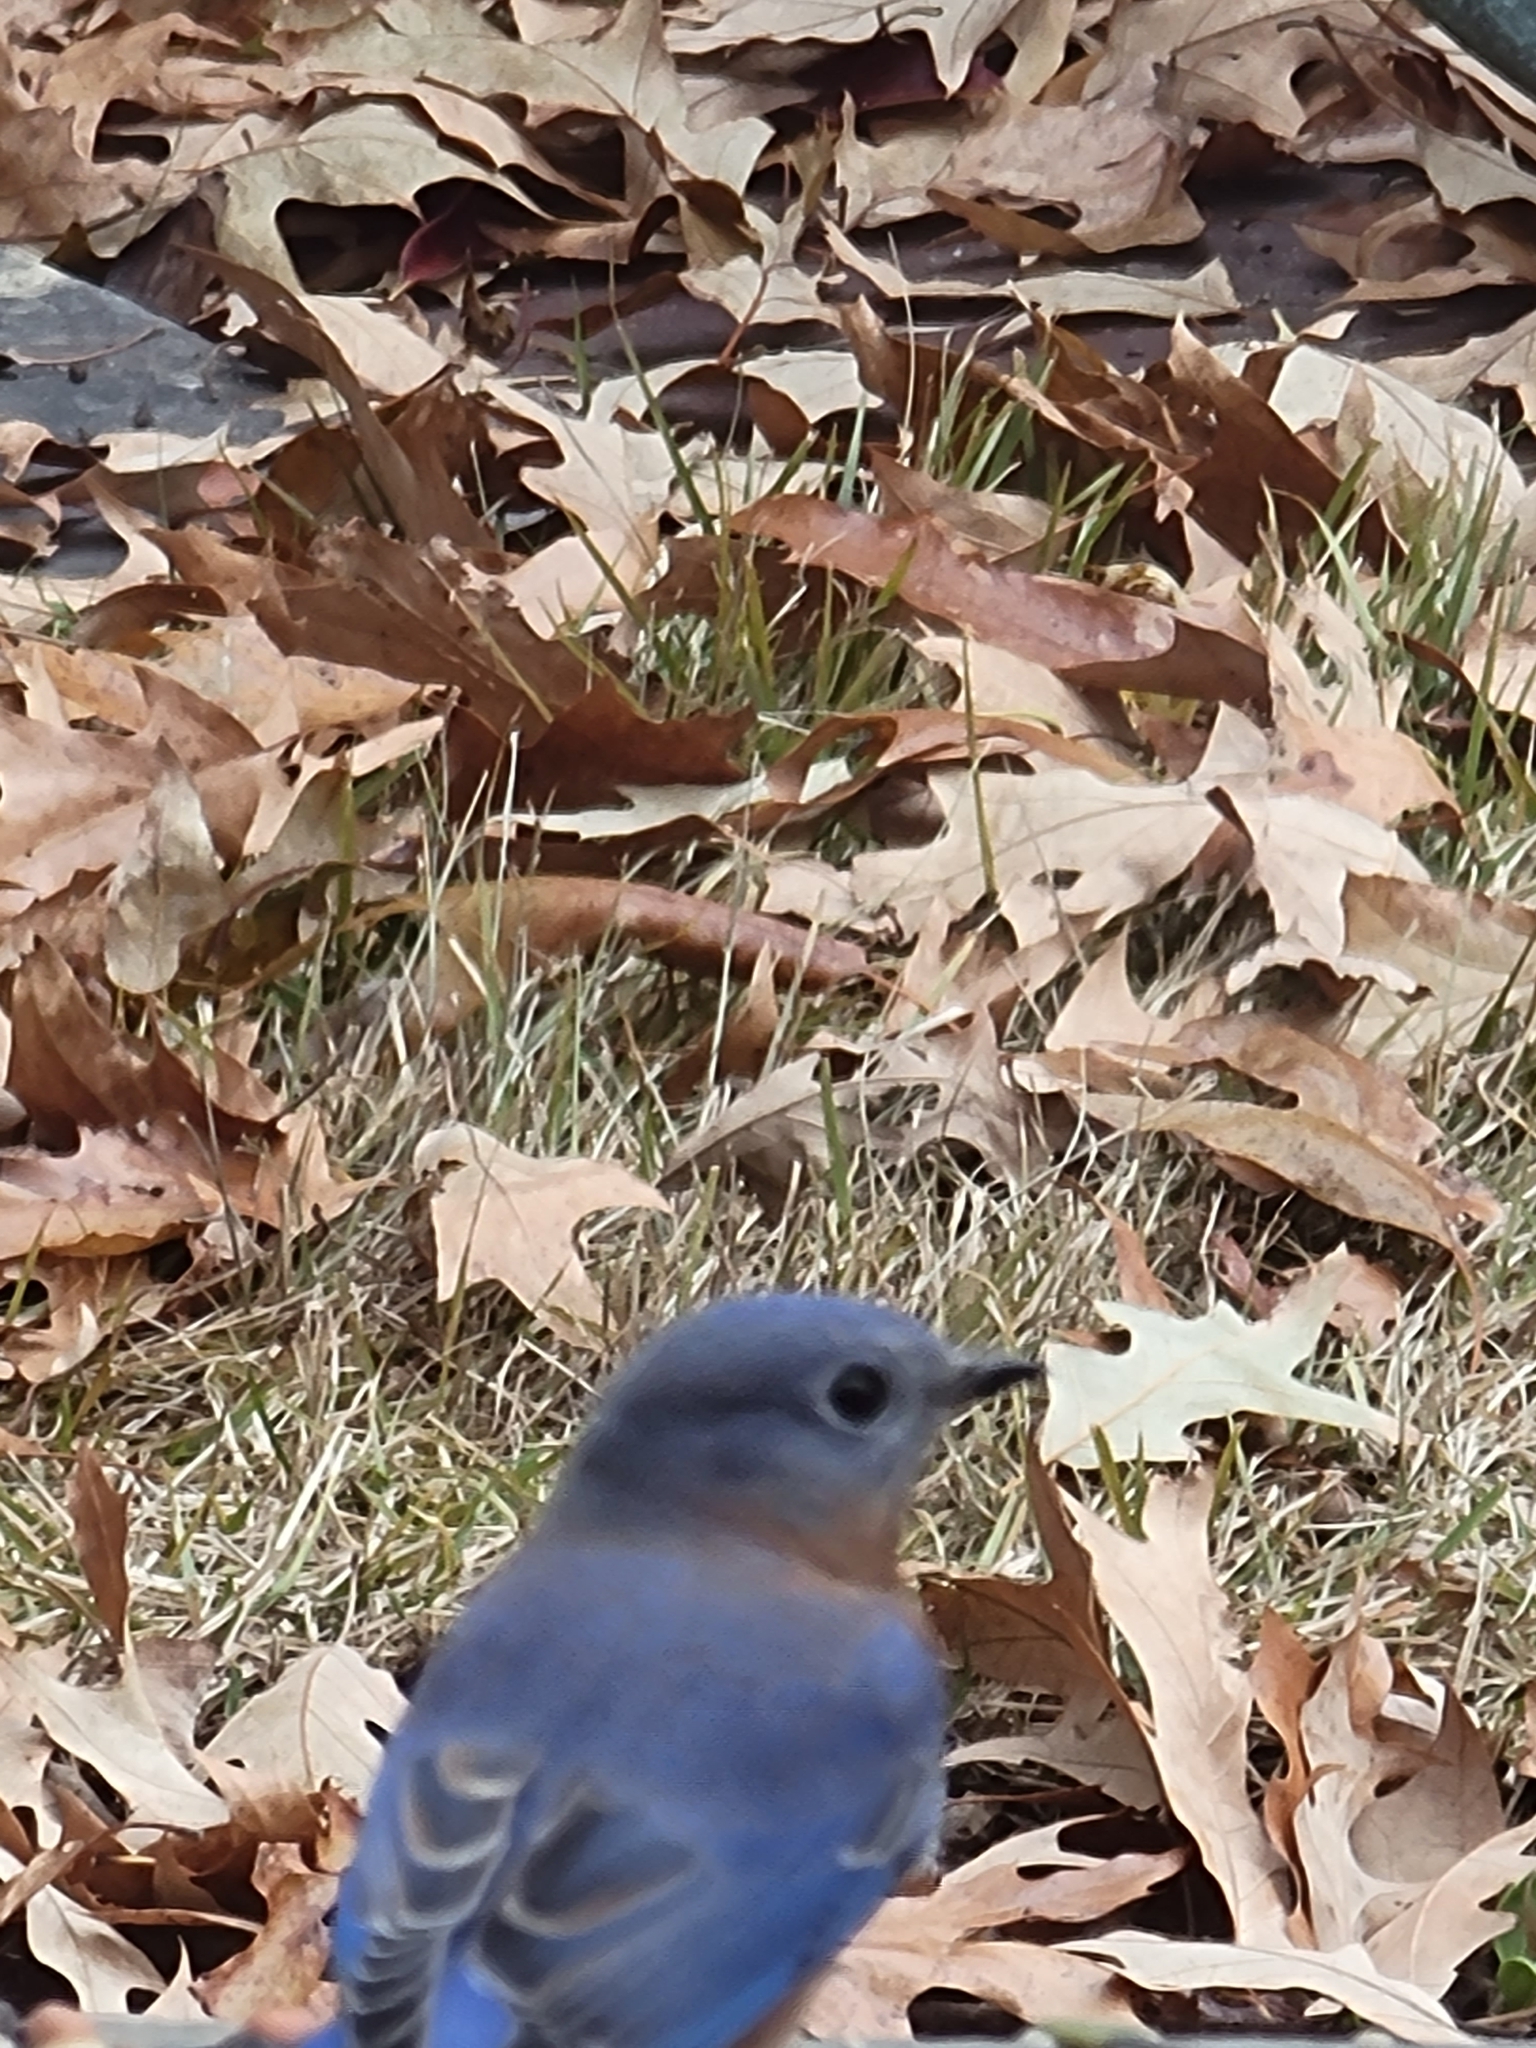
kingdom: Animalia
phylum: Chordata
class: Aves
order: Passeriformes
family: Turdidae
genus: Sialia
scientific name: Sialia sialis
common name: Eastern bluebird
